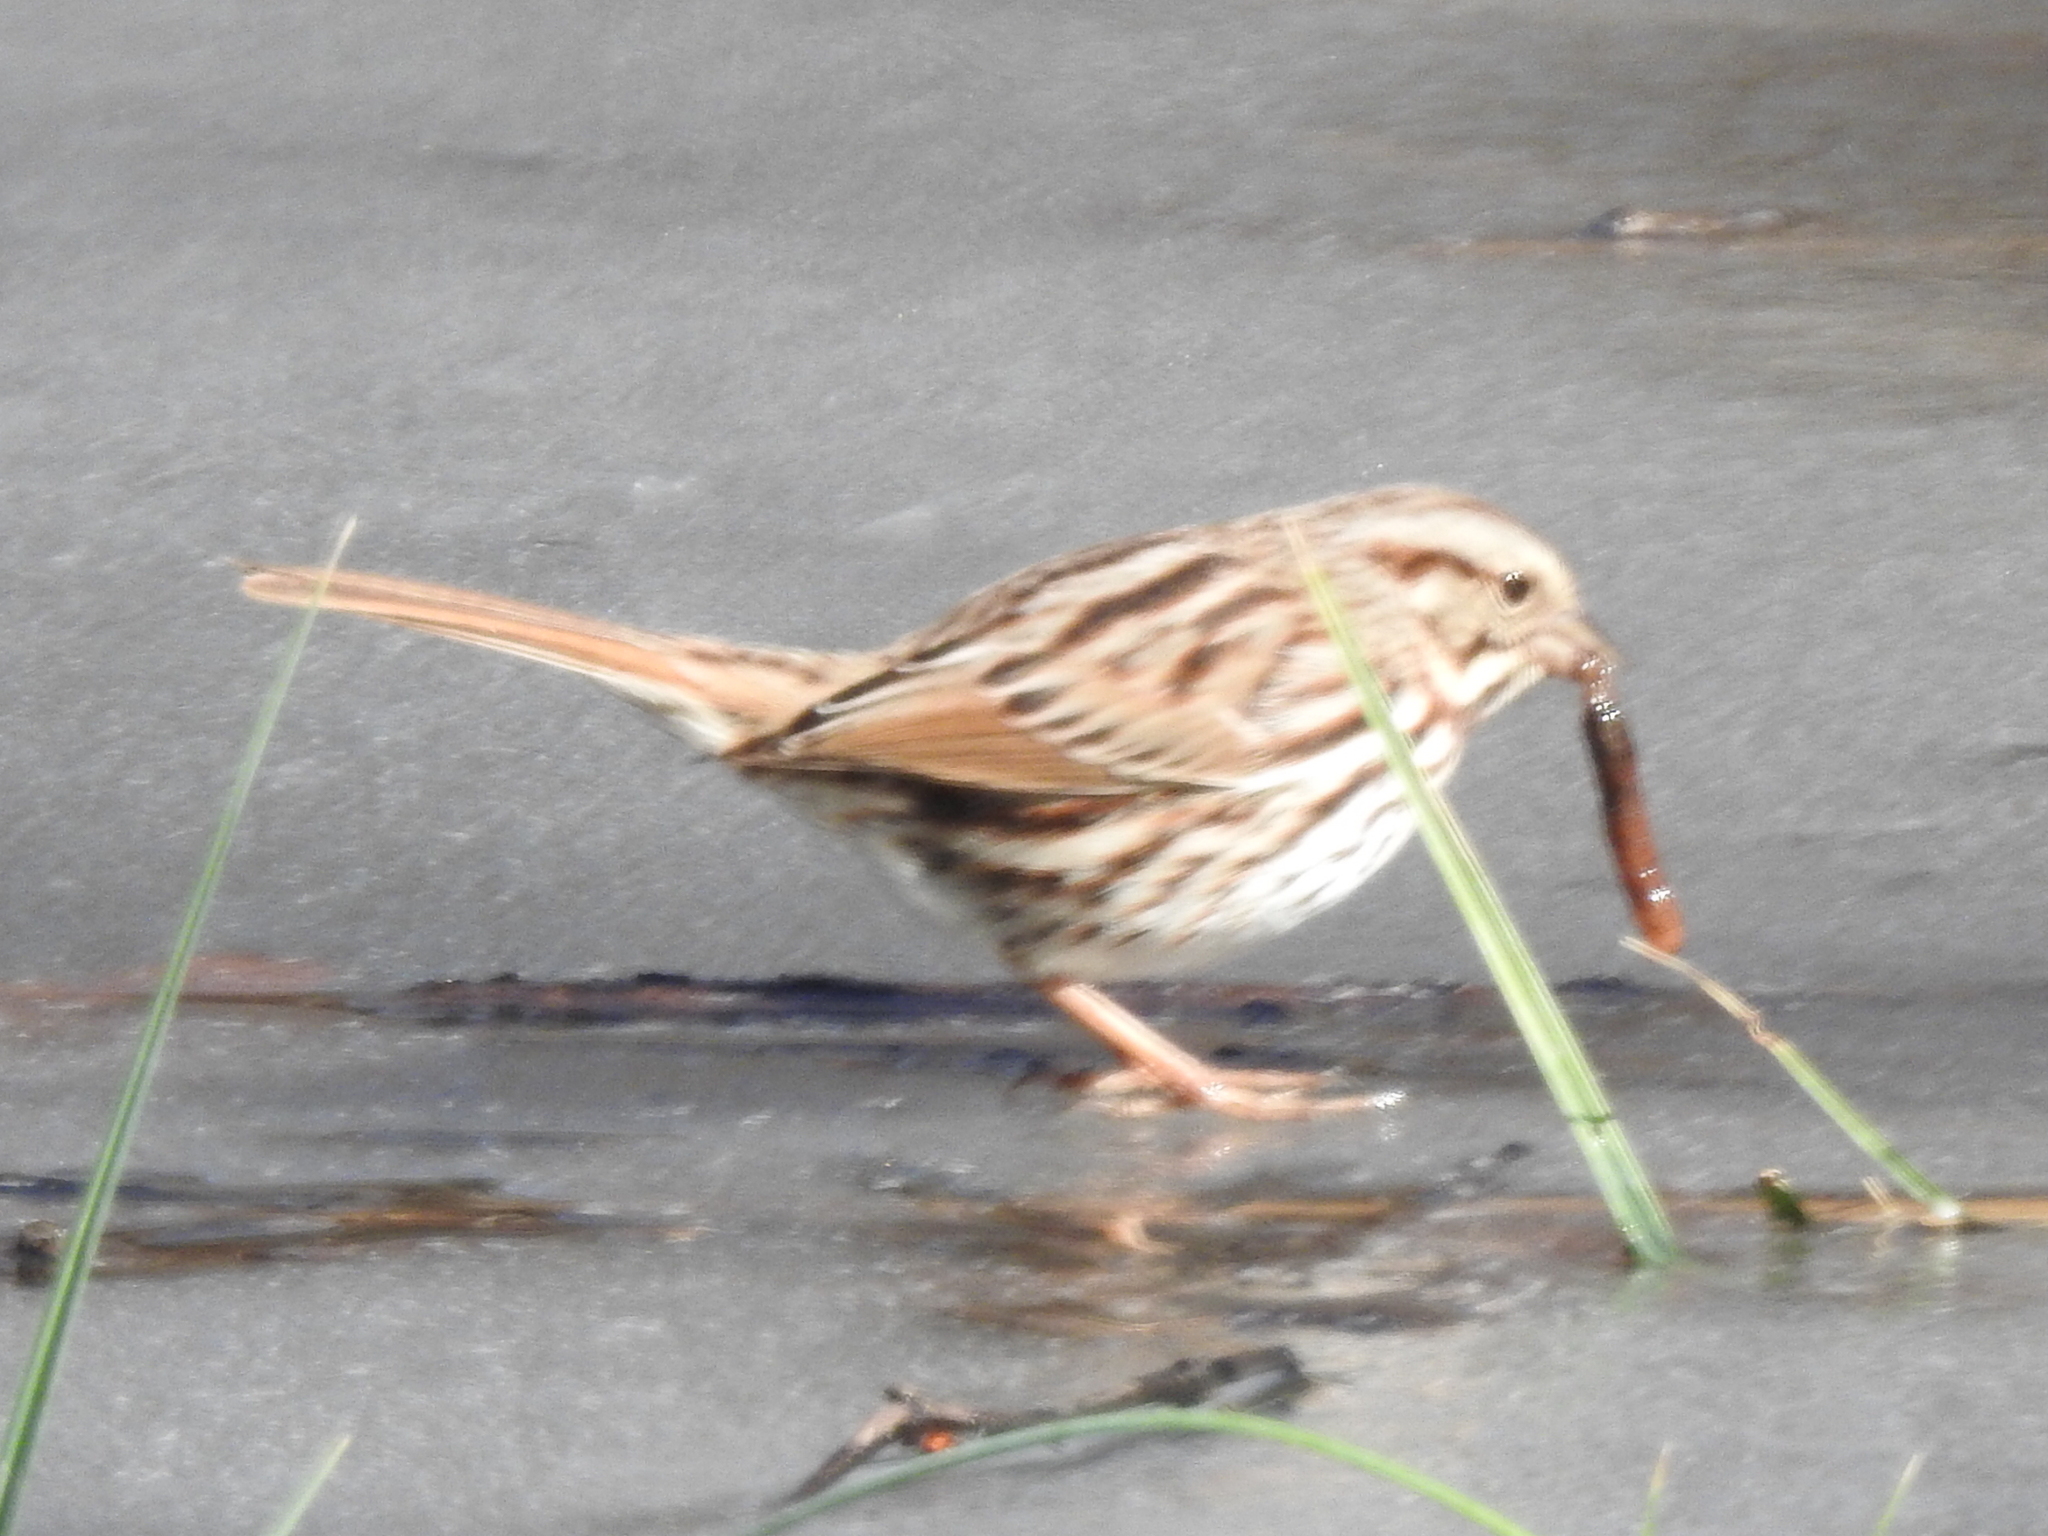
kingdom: Animalia
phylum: Chordata
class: Aves
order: Passeriformes
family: Passerellidae
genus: Melospiza
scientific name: Melospiza melodia
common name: Song sparrow
